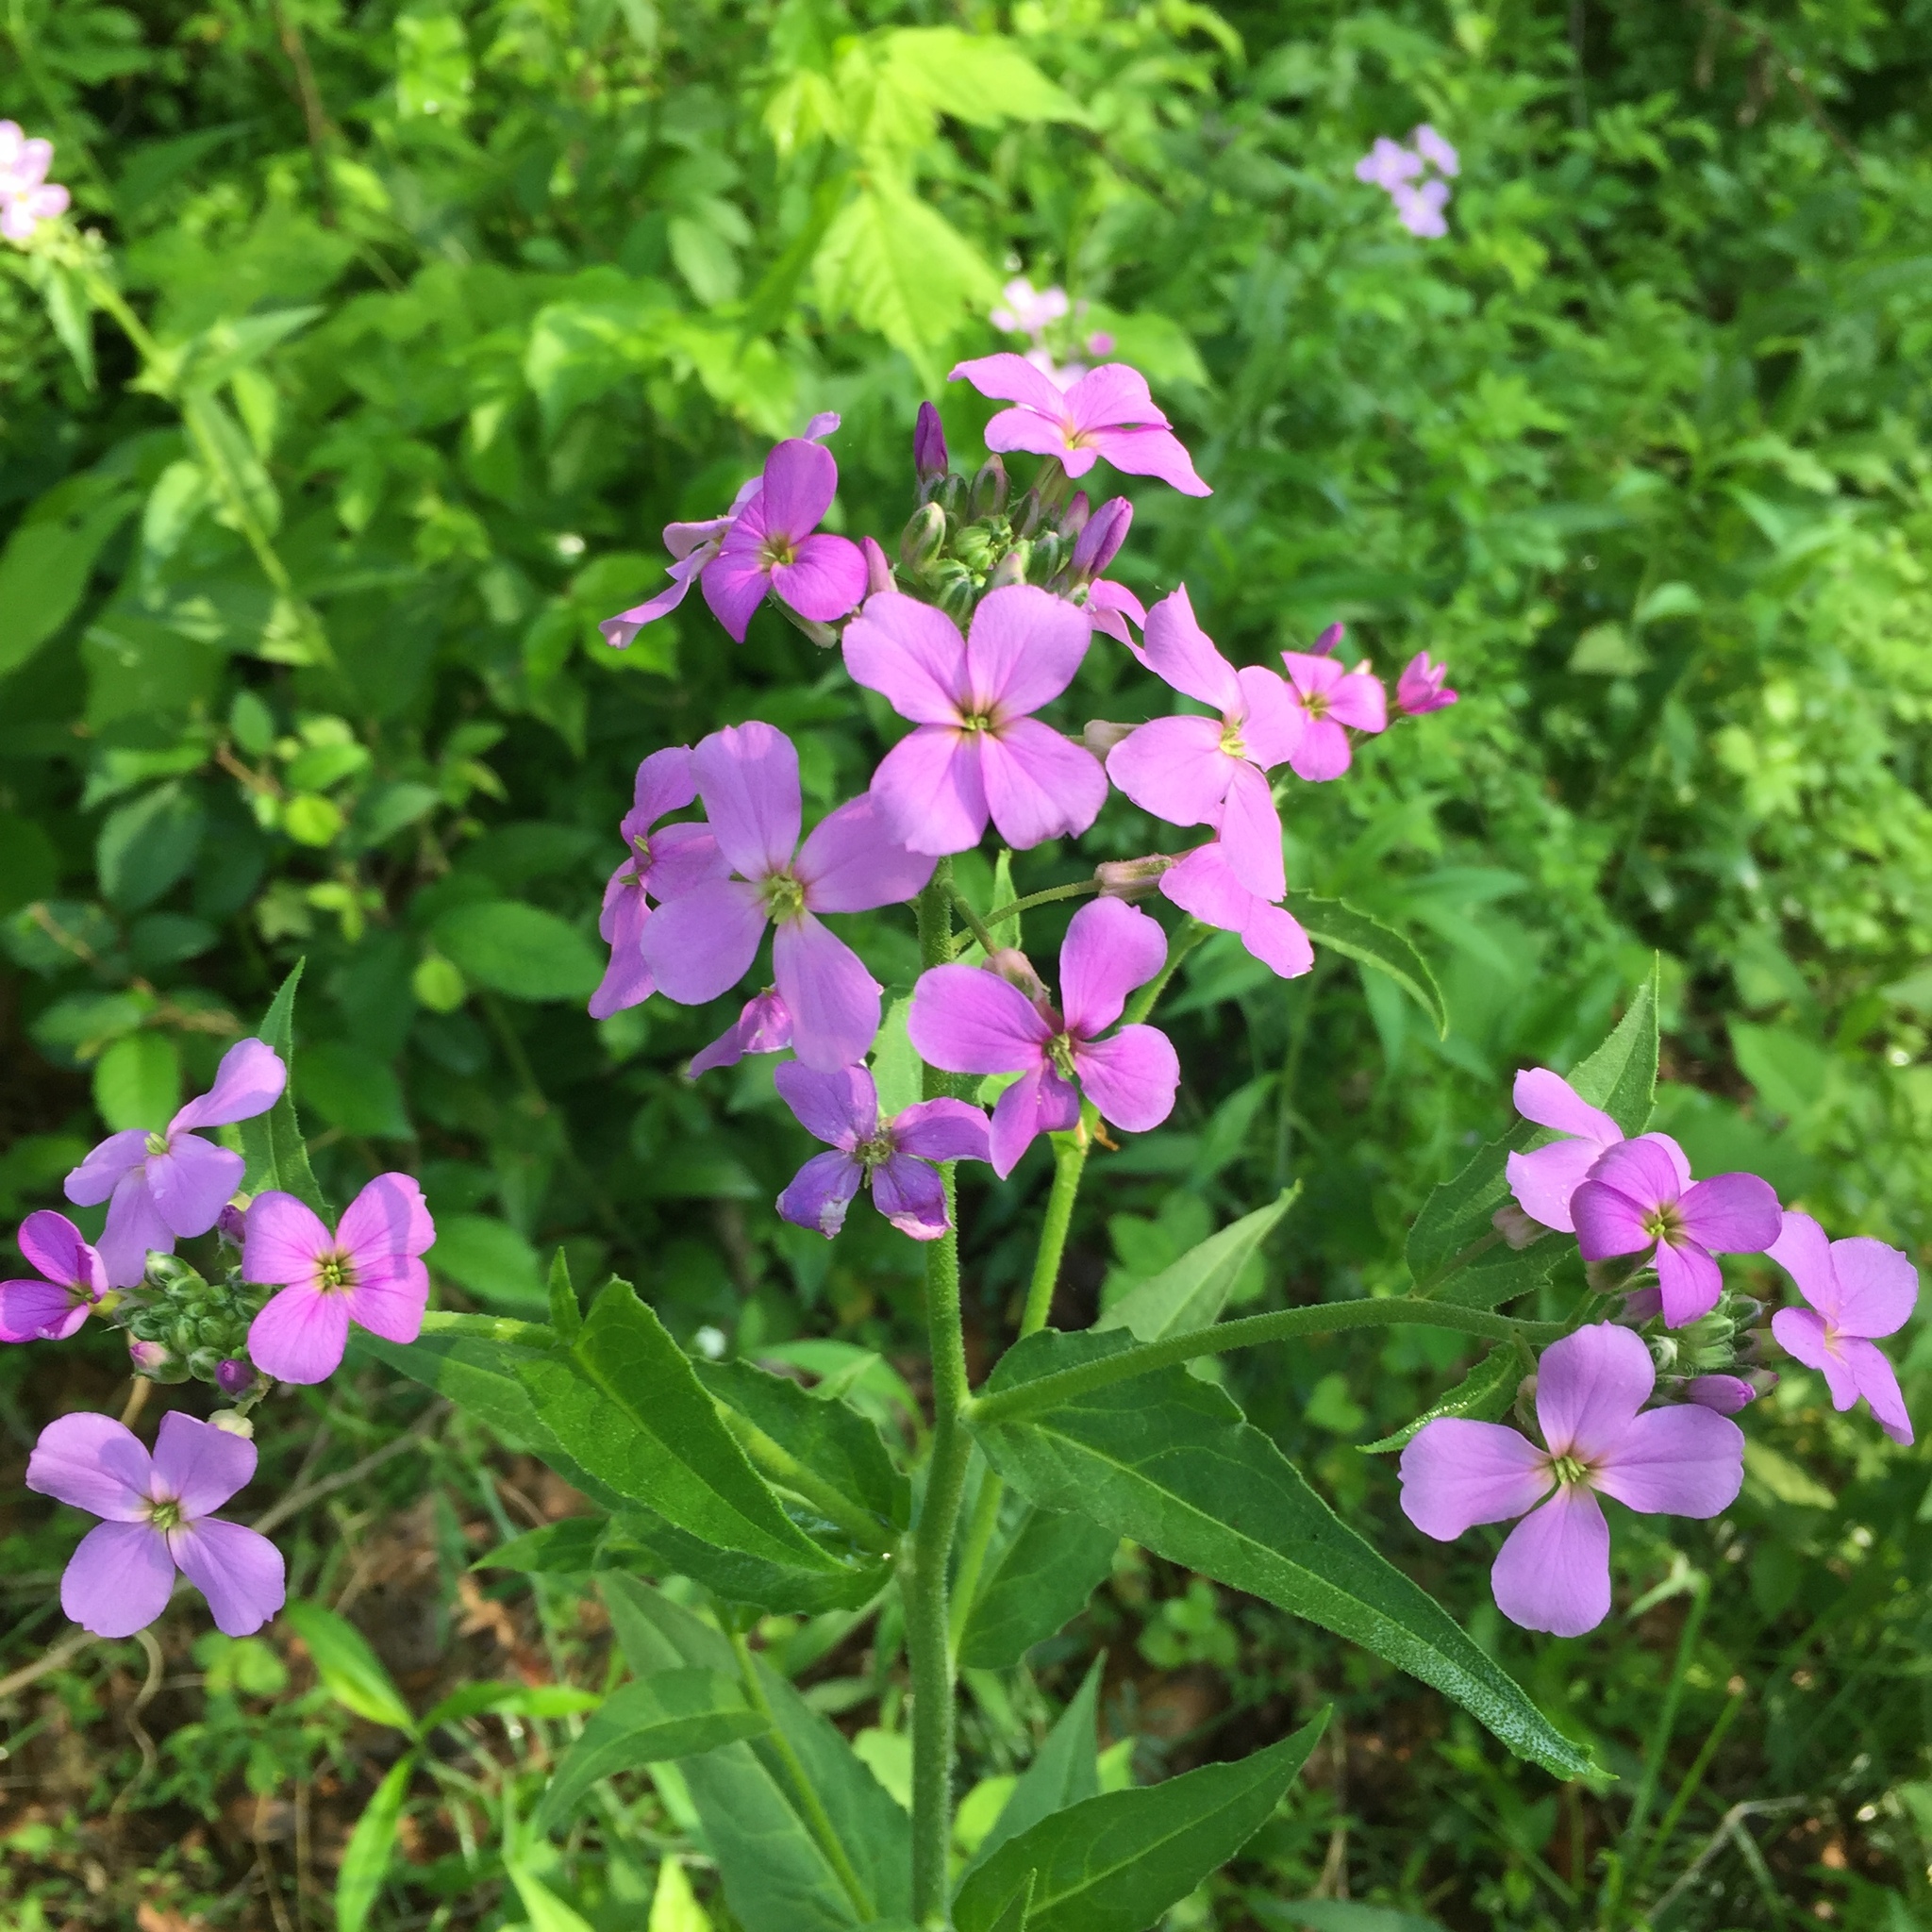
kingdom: Plantae
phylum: Tracheophyta
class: Magnoliopsida
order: Brassicales
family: Brassicaceae
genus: Hesperis
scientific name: Hesperis matronalis
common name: Dame's-violet
